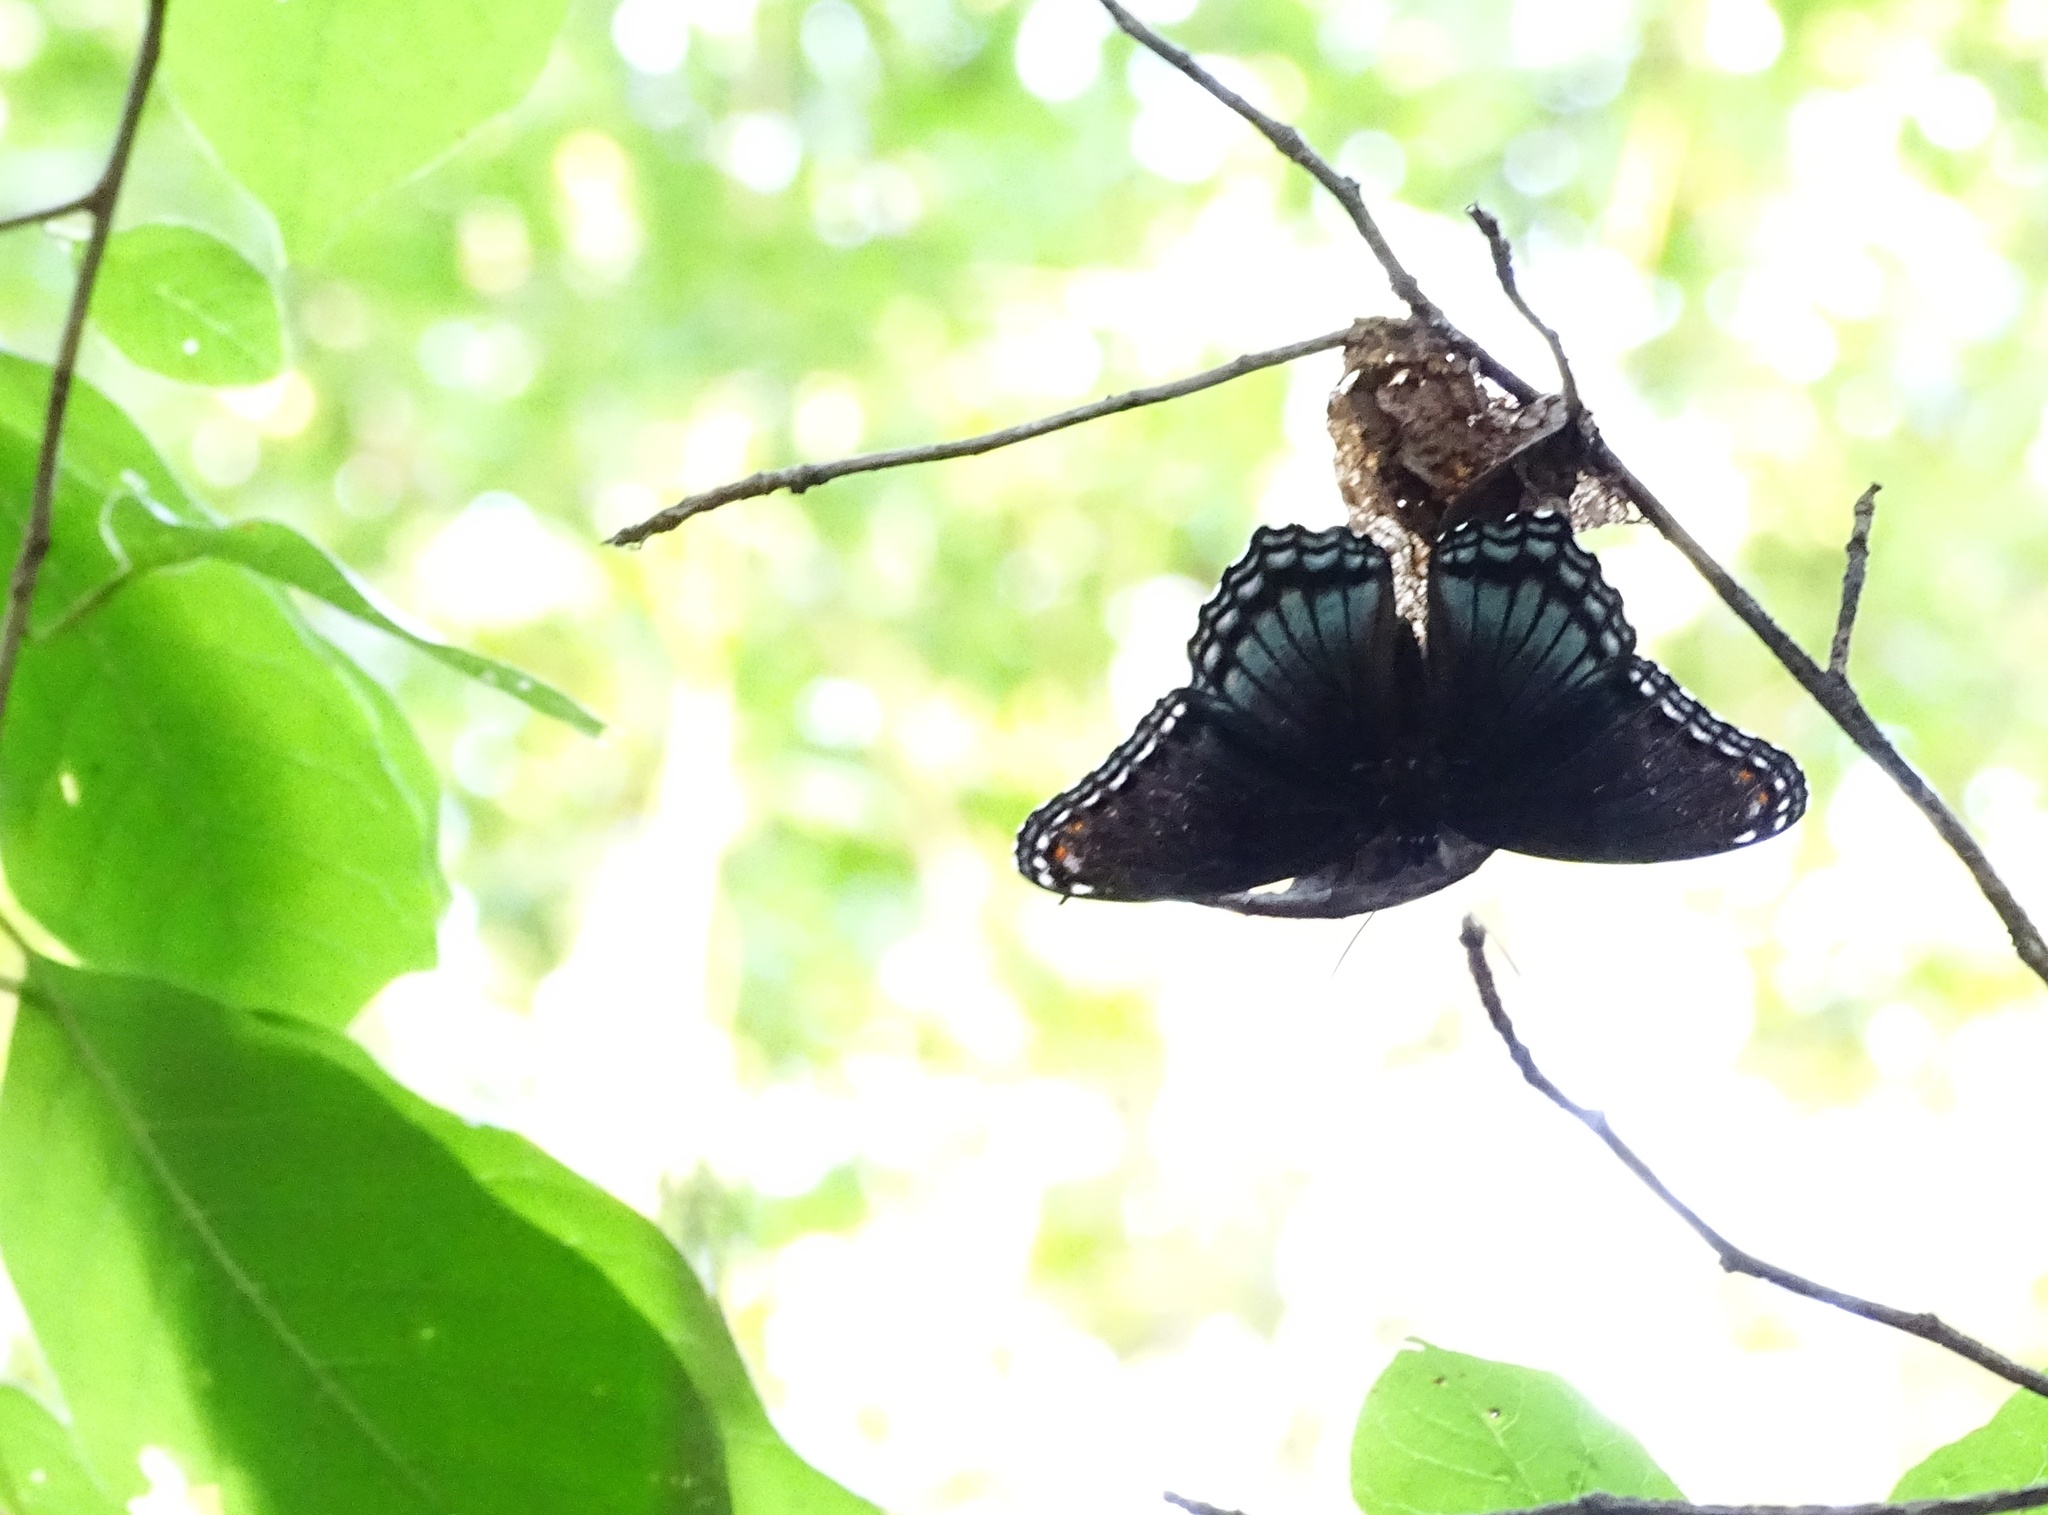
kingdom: Animalia
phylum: Arthropoda
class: Insecta
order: Lepidoptera
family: Nymphalidae
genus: Limenitis
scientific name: Limenitis astyanax
